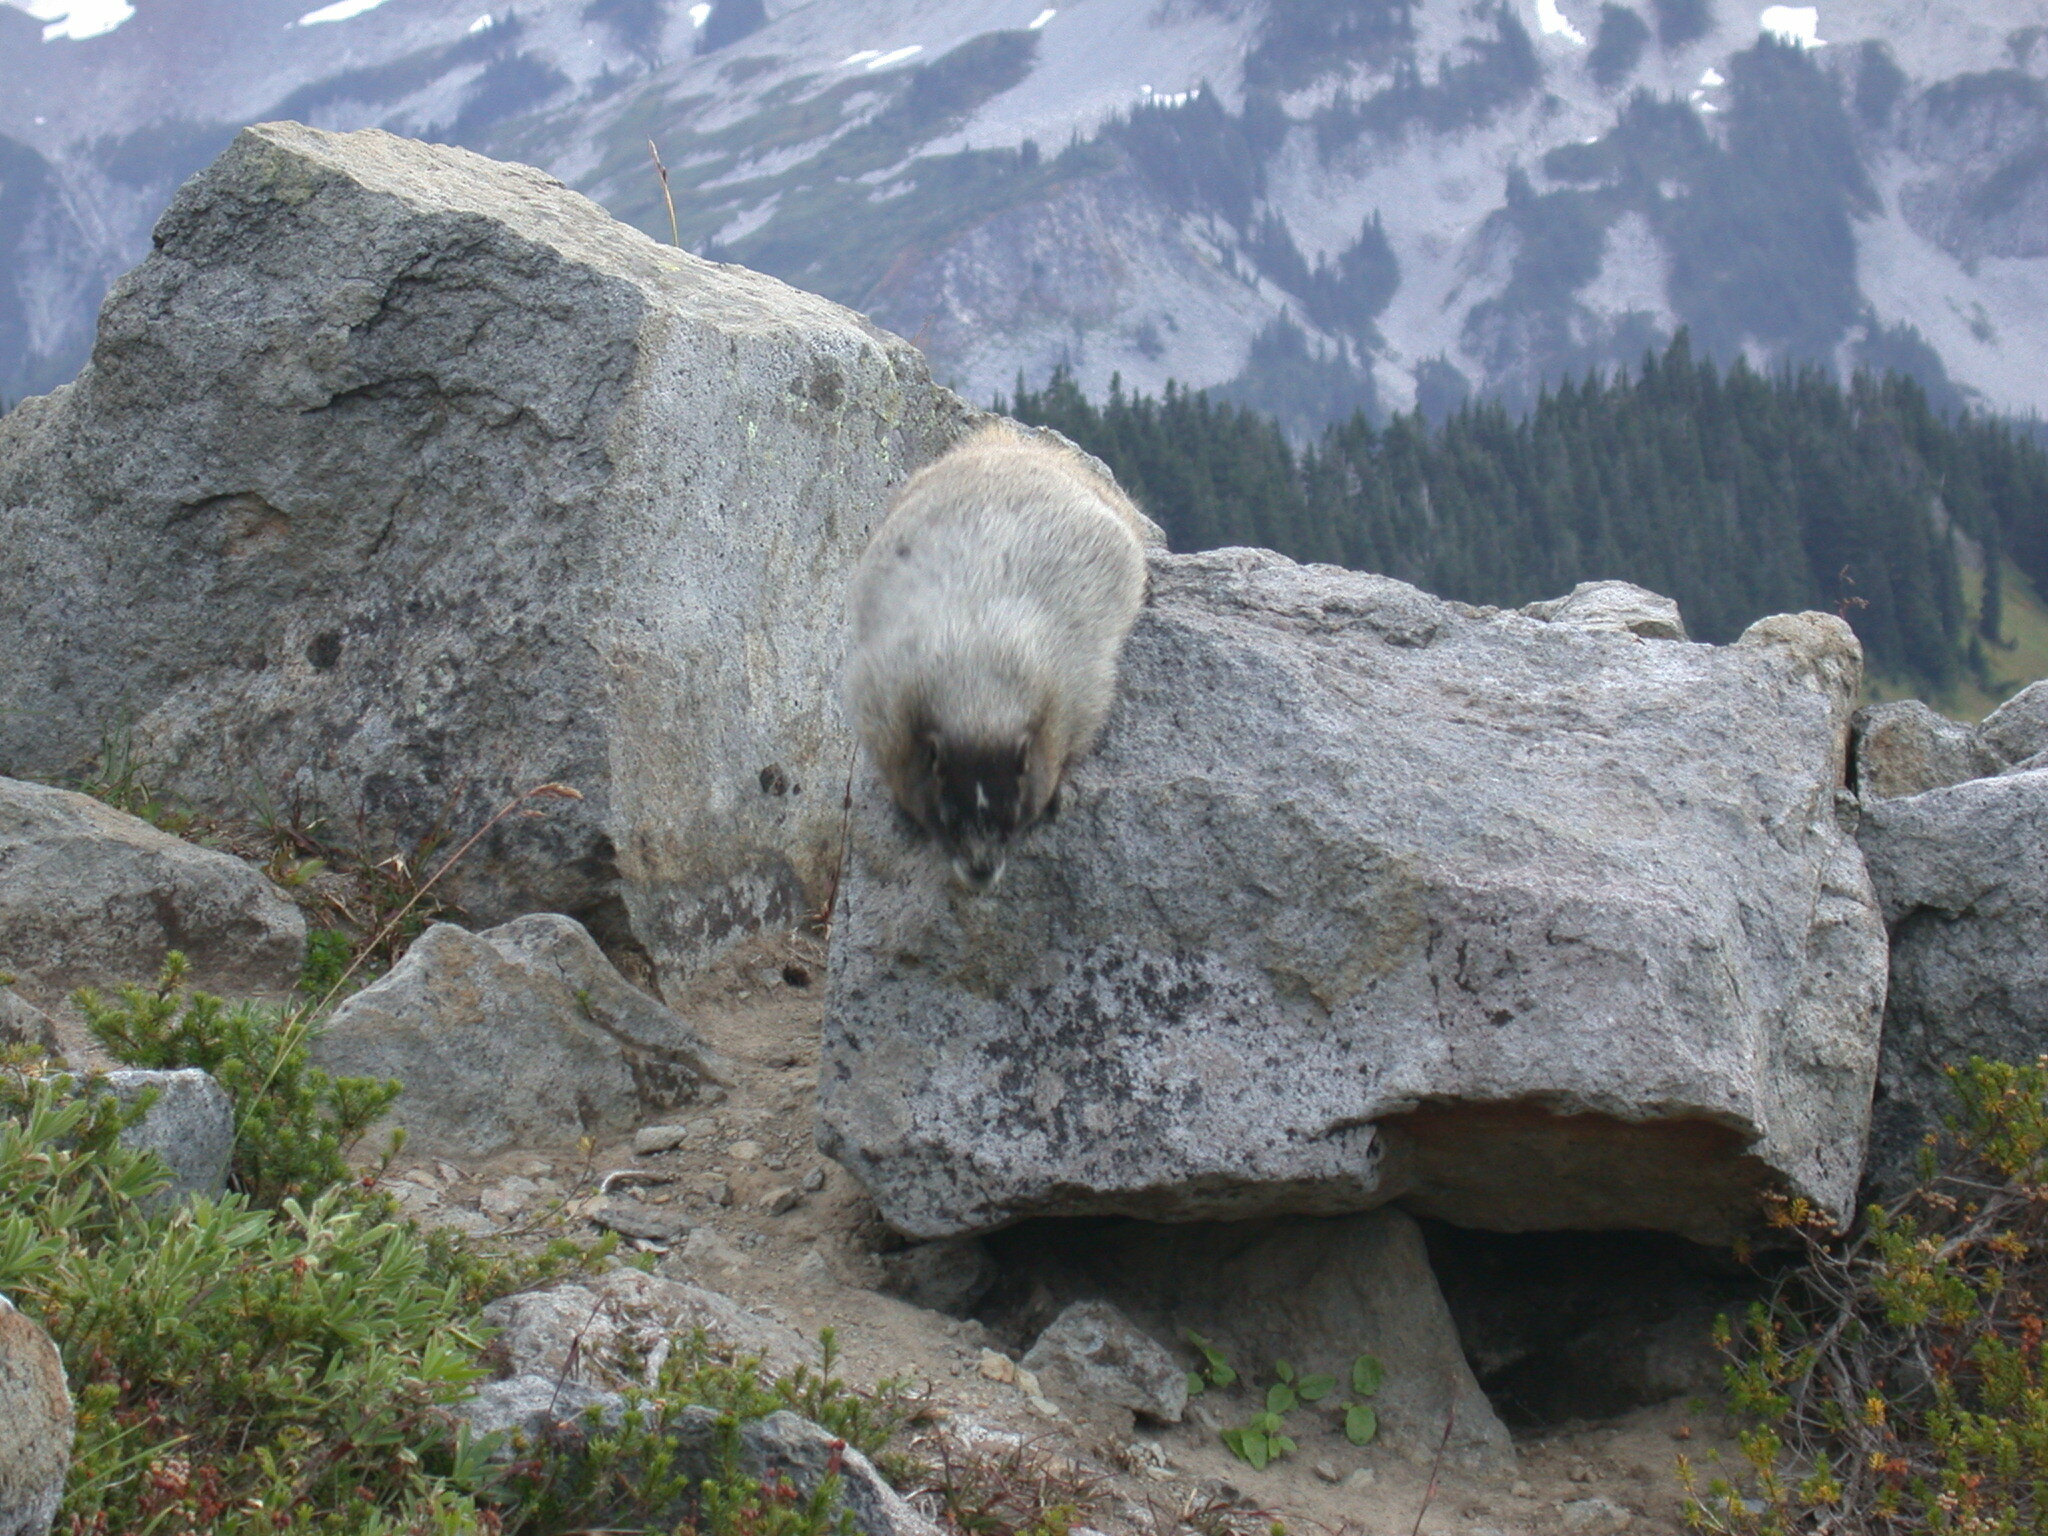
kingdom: Animalia
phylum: Chordata
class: Mammalia
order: Rodentia
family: Sciuridae
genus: Marmota
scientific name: Marmota caligata
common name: Hoary marmot
